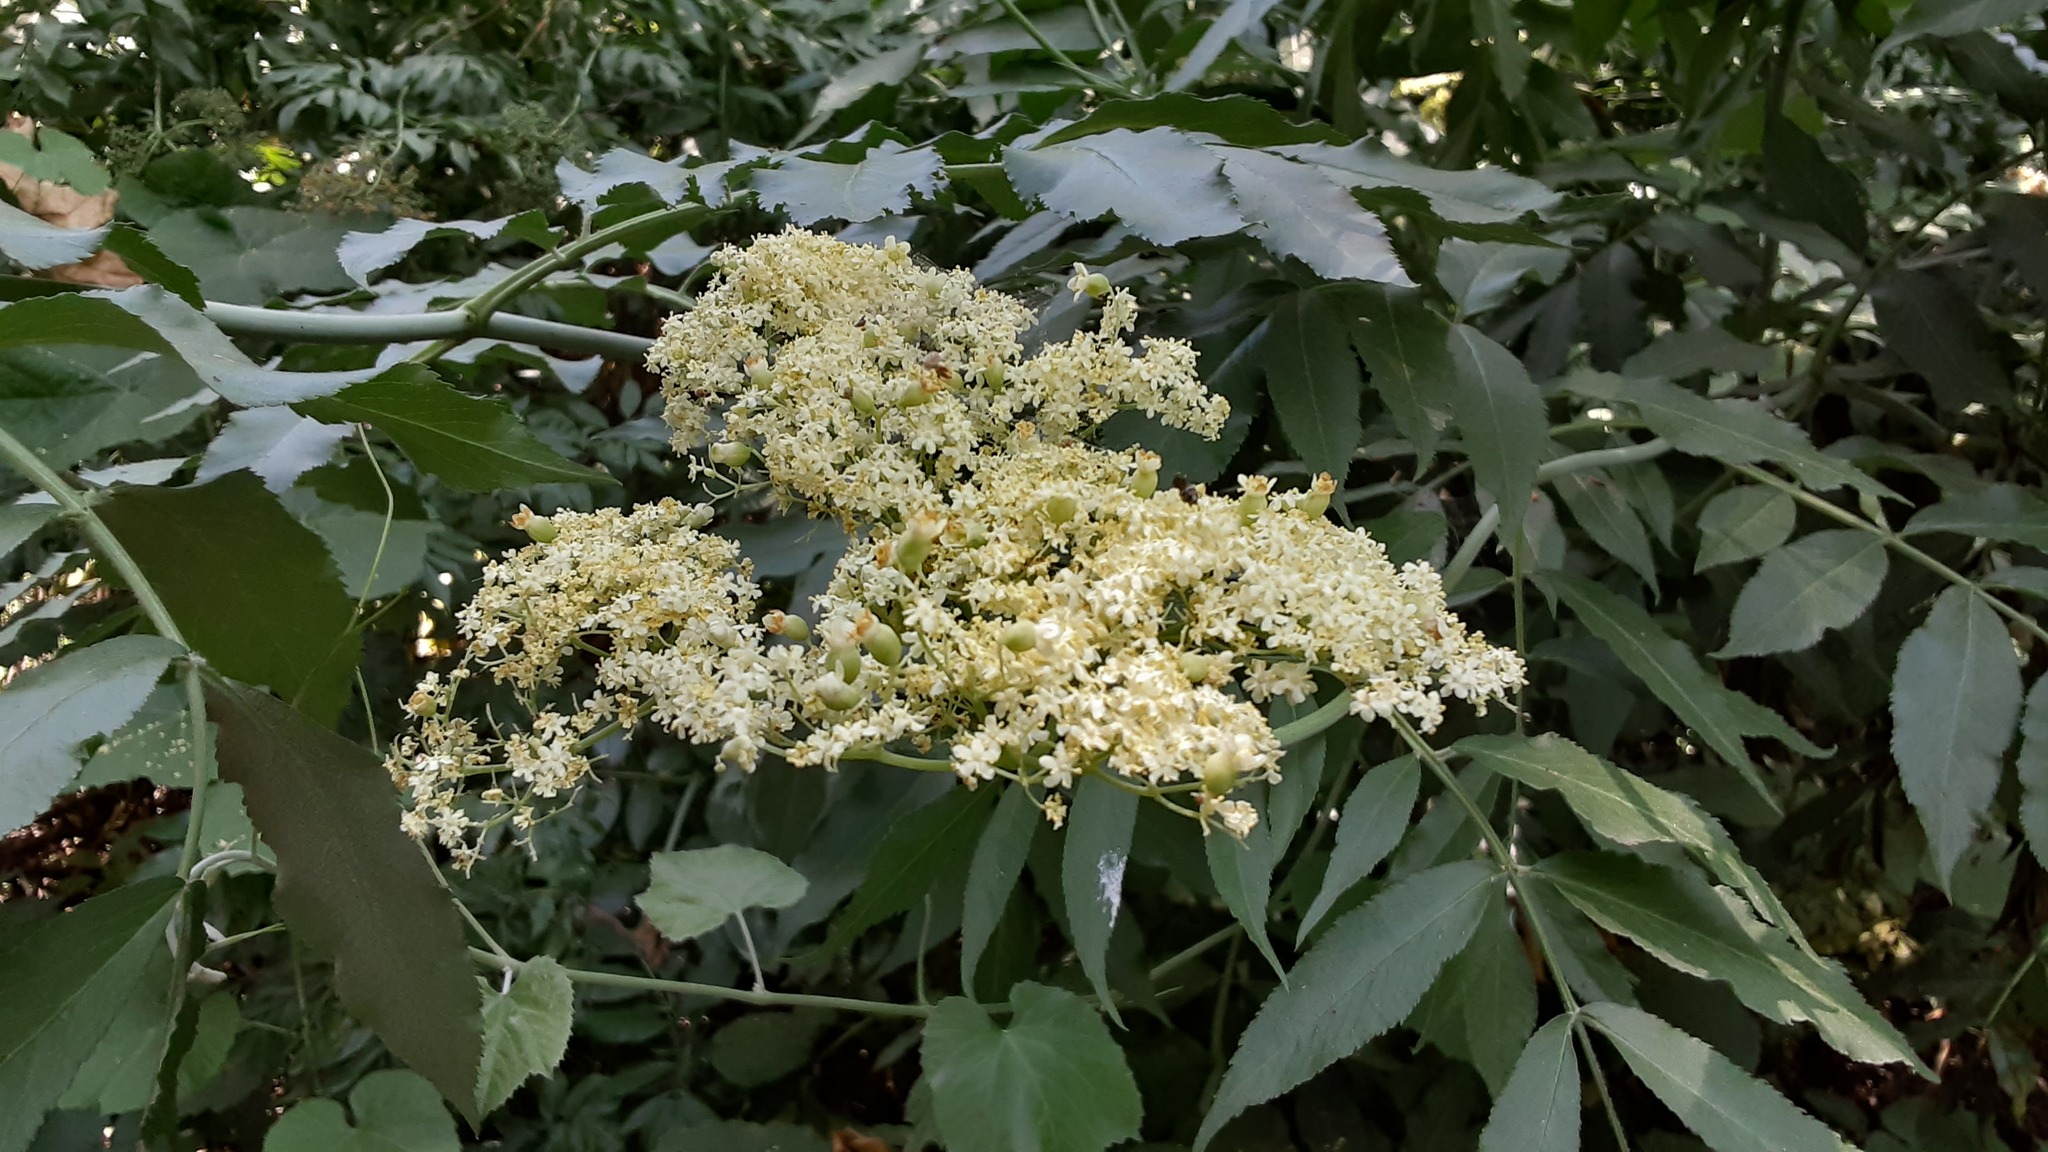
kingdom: Plantae
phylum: Tracheophyta
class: Magnoliopsida
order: Dipsacales
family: Viburnaceae
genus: Sambucus
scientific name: Sambucus cerulea
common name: Blue elder
